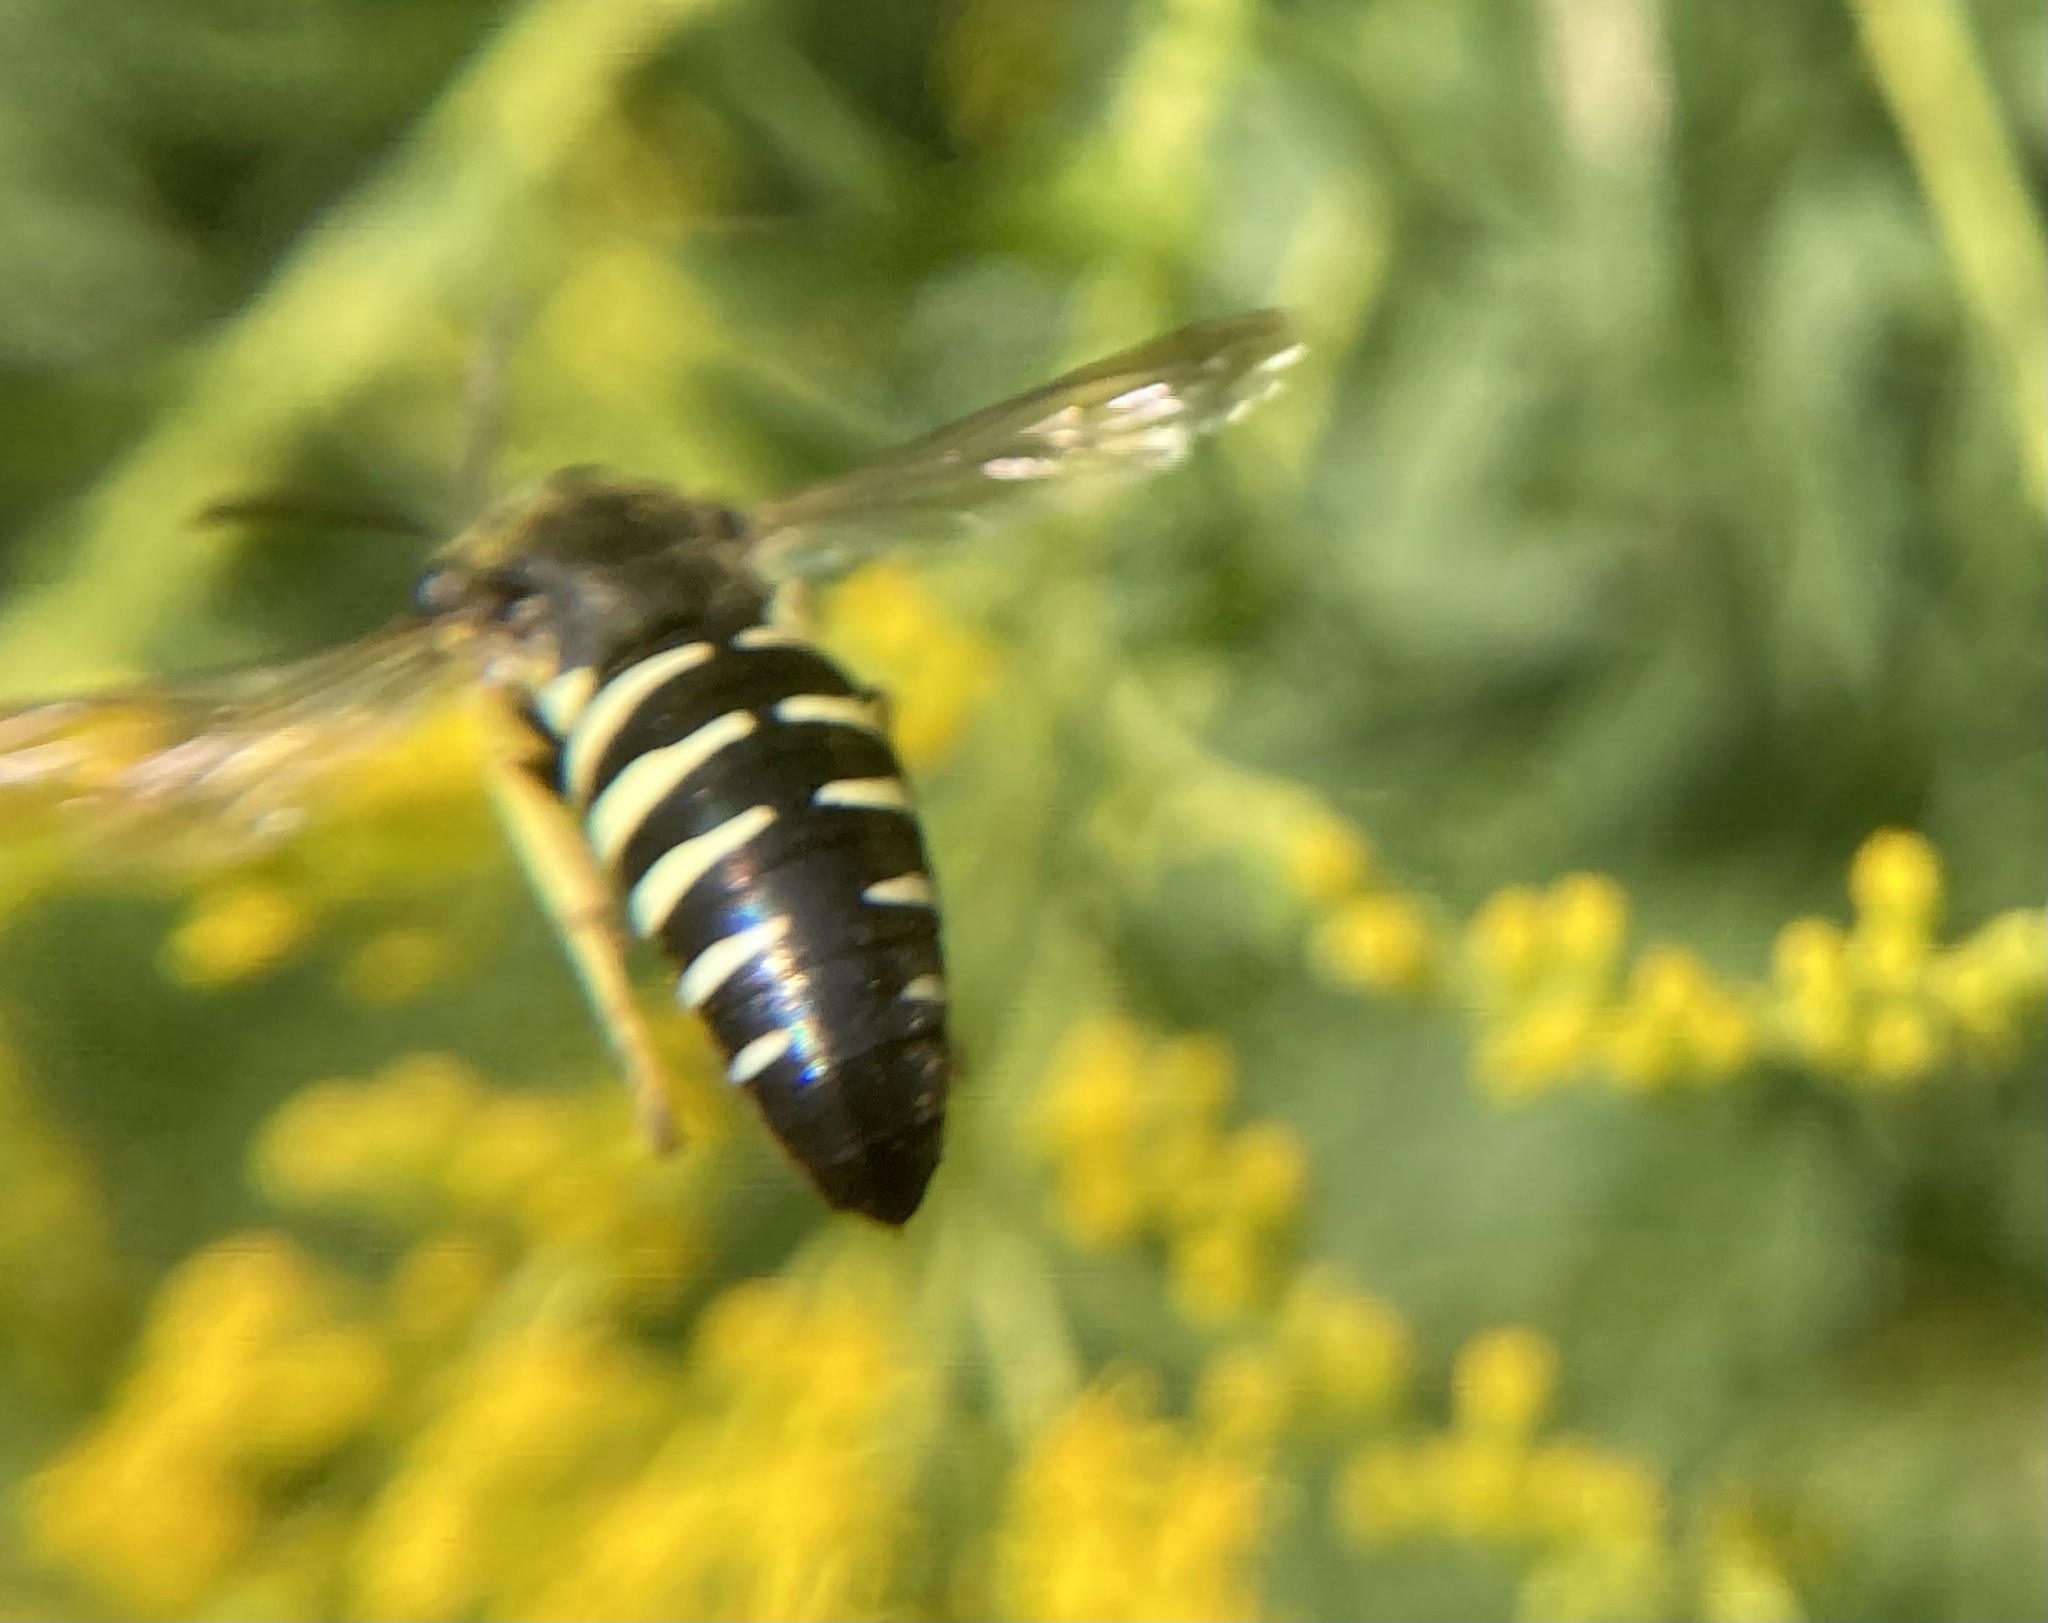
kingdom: Animalia
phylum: Arthropoda
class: Insecta
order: Hymenoptera
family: Crabronidae
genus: Bicyrtes
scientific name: Bicyrtes quadrifasciatus
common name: Four-banded stink bug hunter wasp
